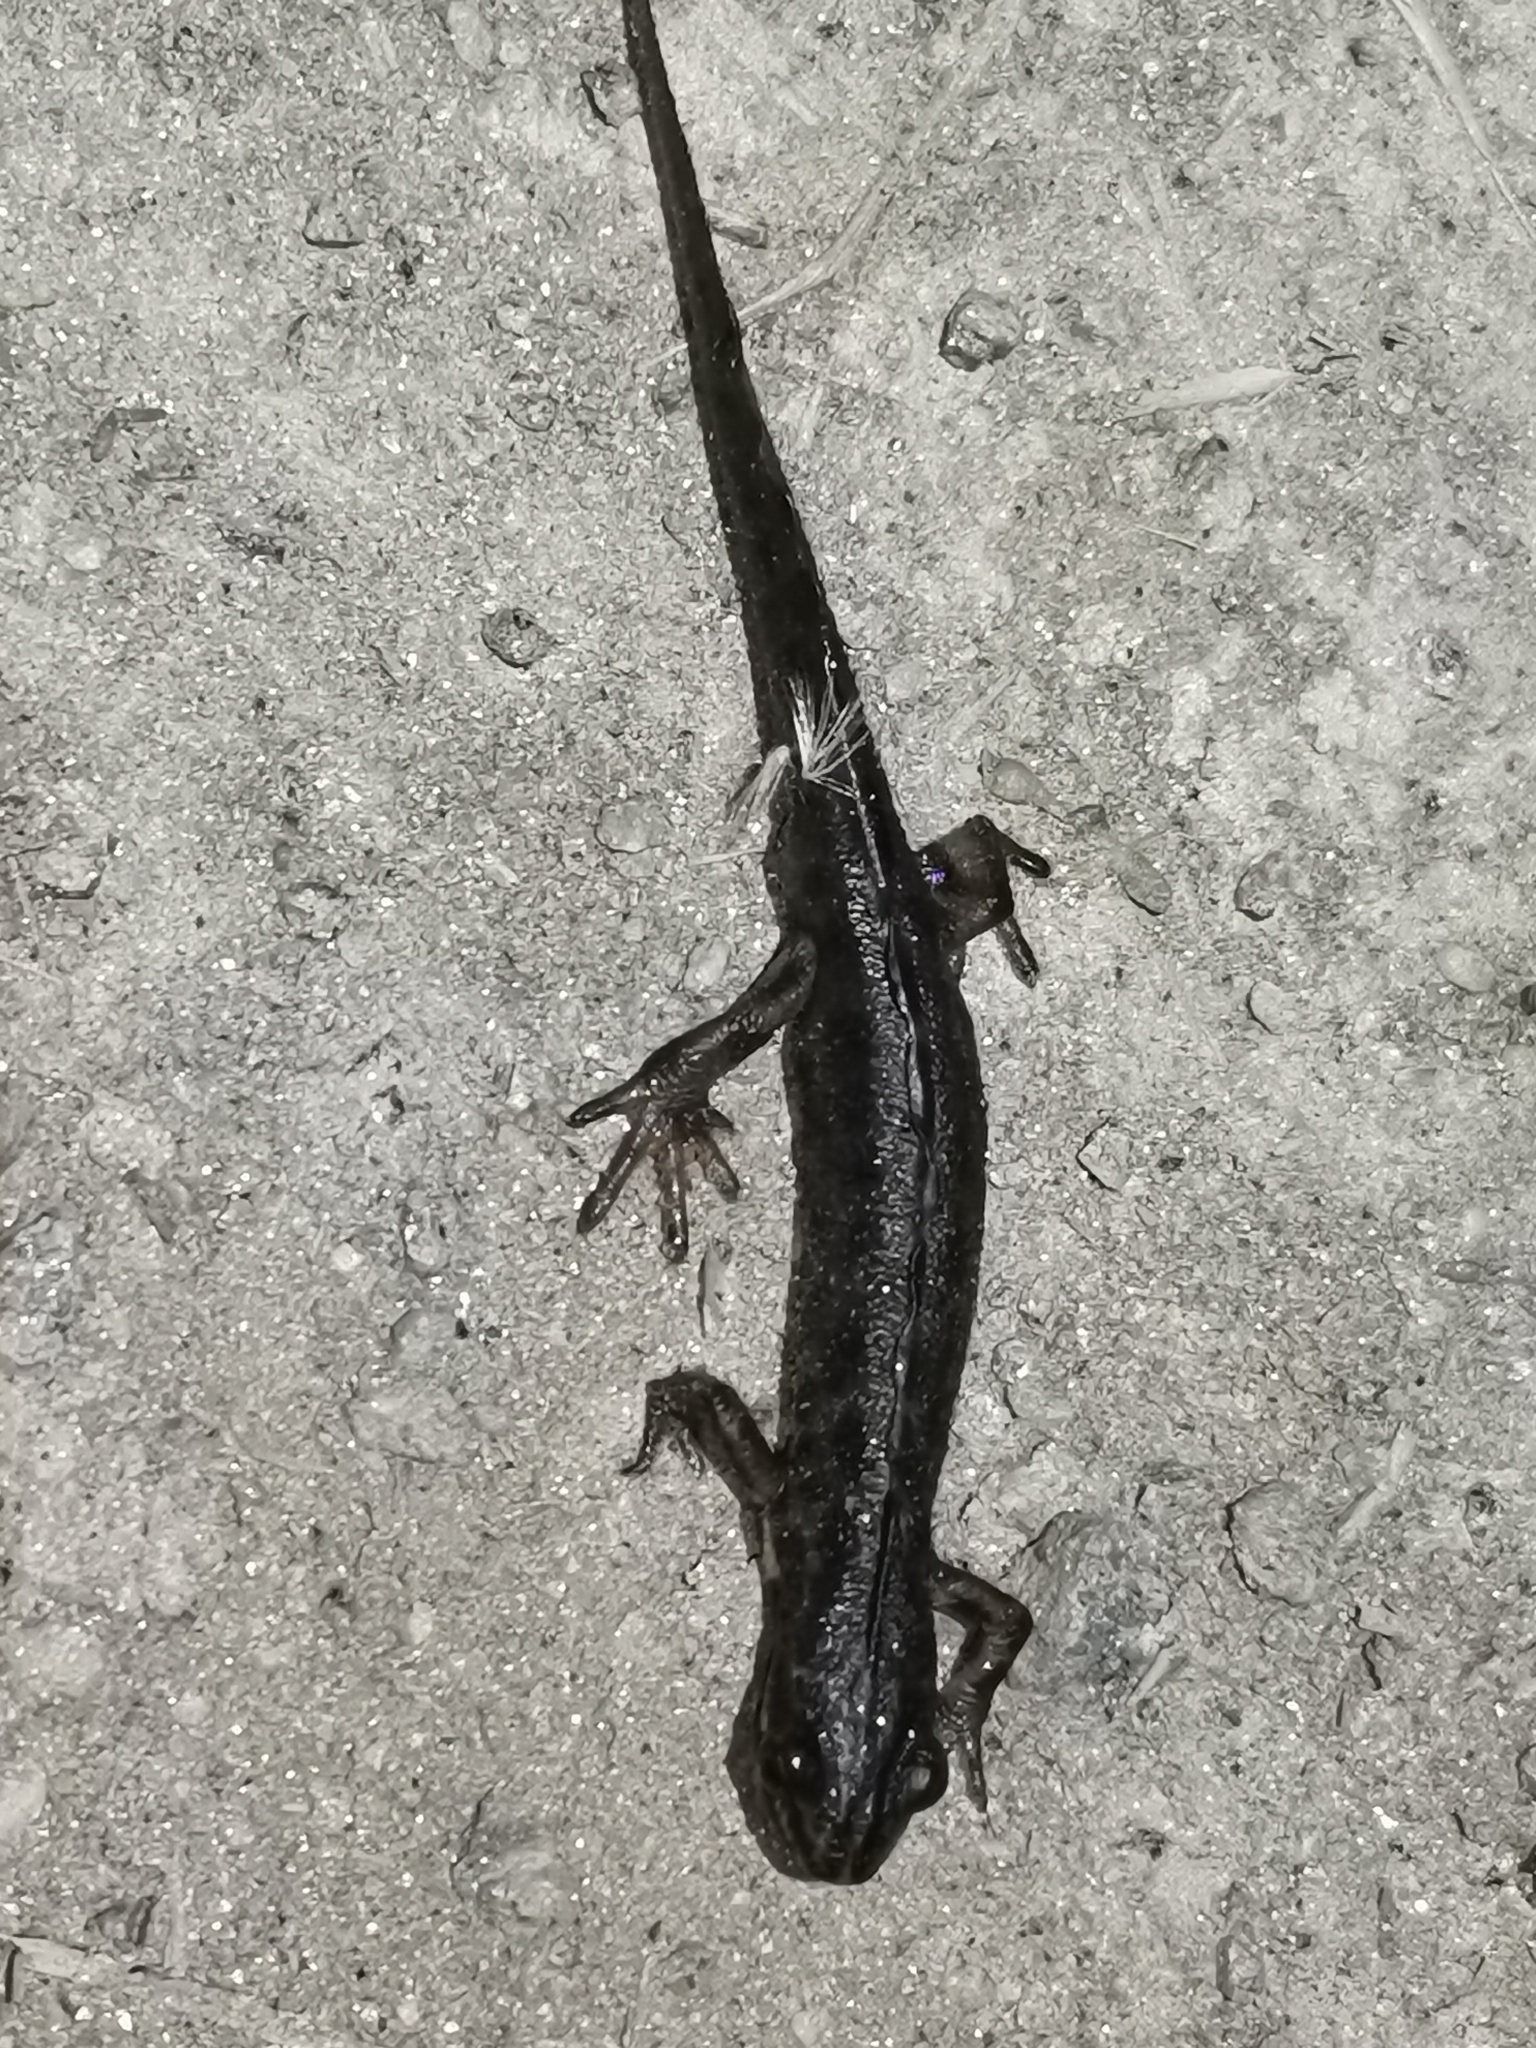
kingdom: Animalia
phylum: Chordata
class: Amphibia
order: Caudata
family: Salamandridae
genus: Lissotriton
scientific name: Lissotriton vulgaris
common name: Smooth newt
